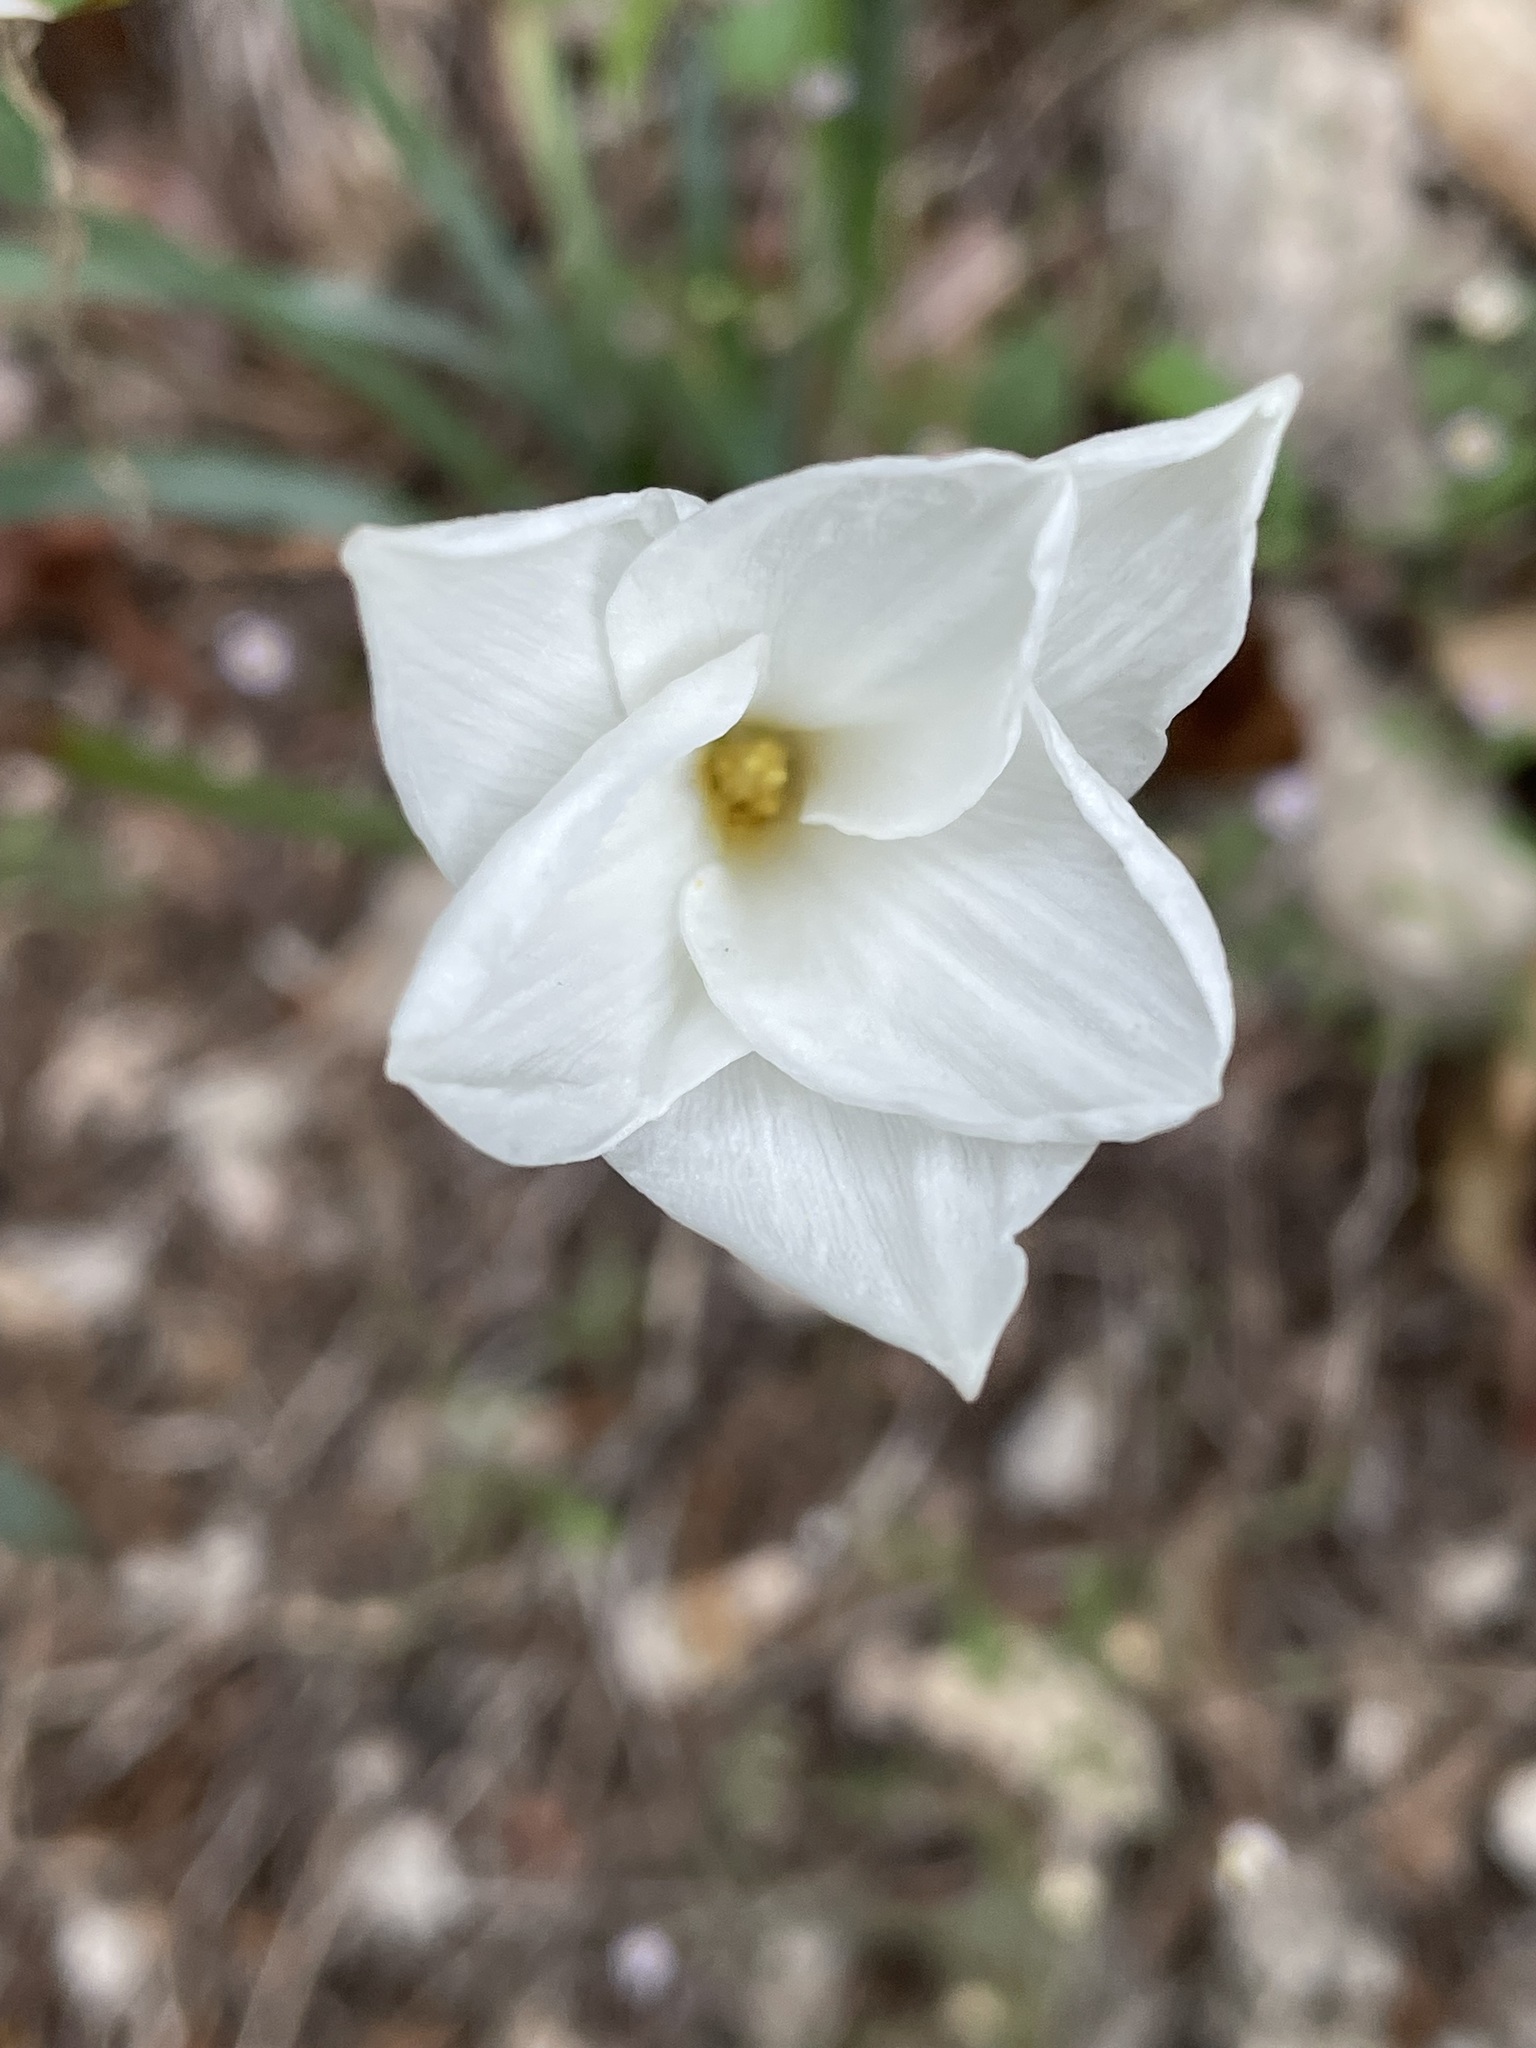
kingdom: Plantae
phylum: Tracheophyta
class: Liliopsida
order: Asparagales
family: Amaryllidaceae
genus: Zephyranthes
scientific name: Zephyranthes drummondii
